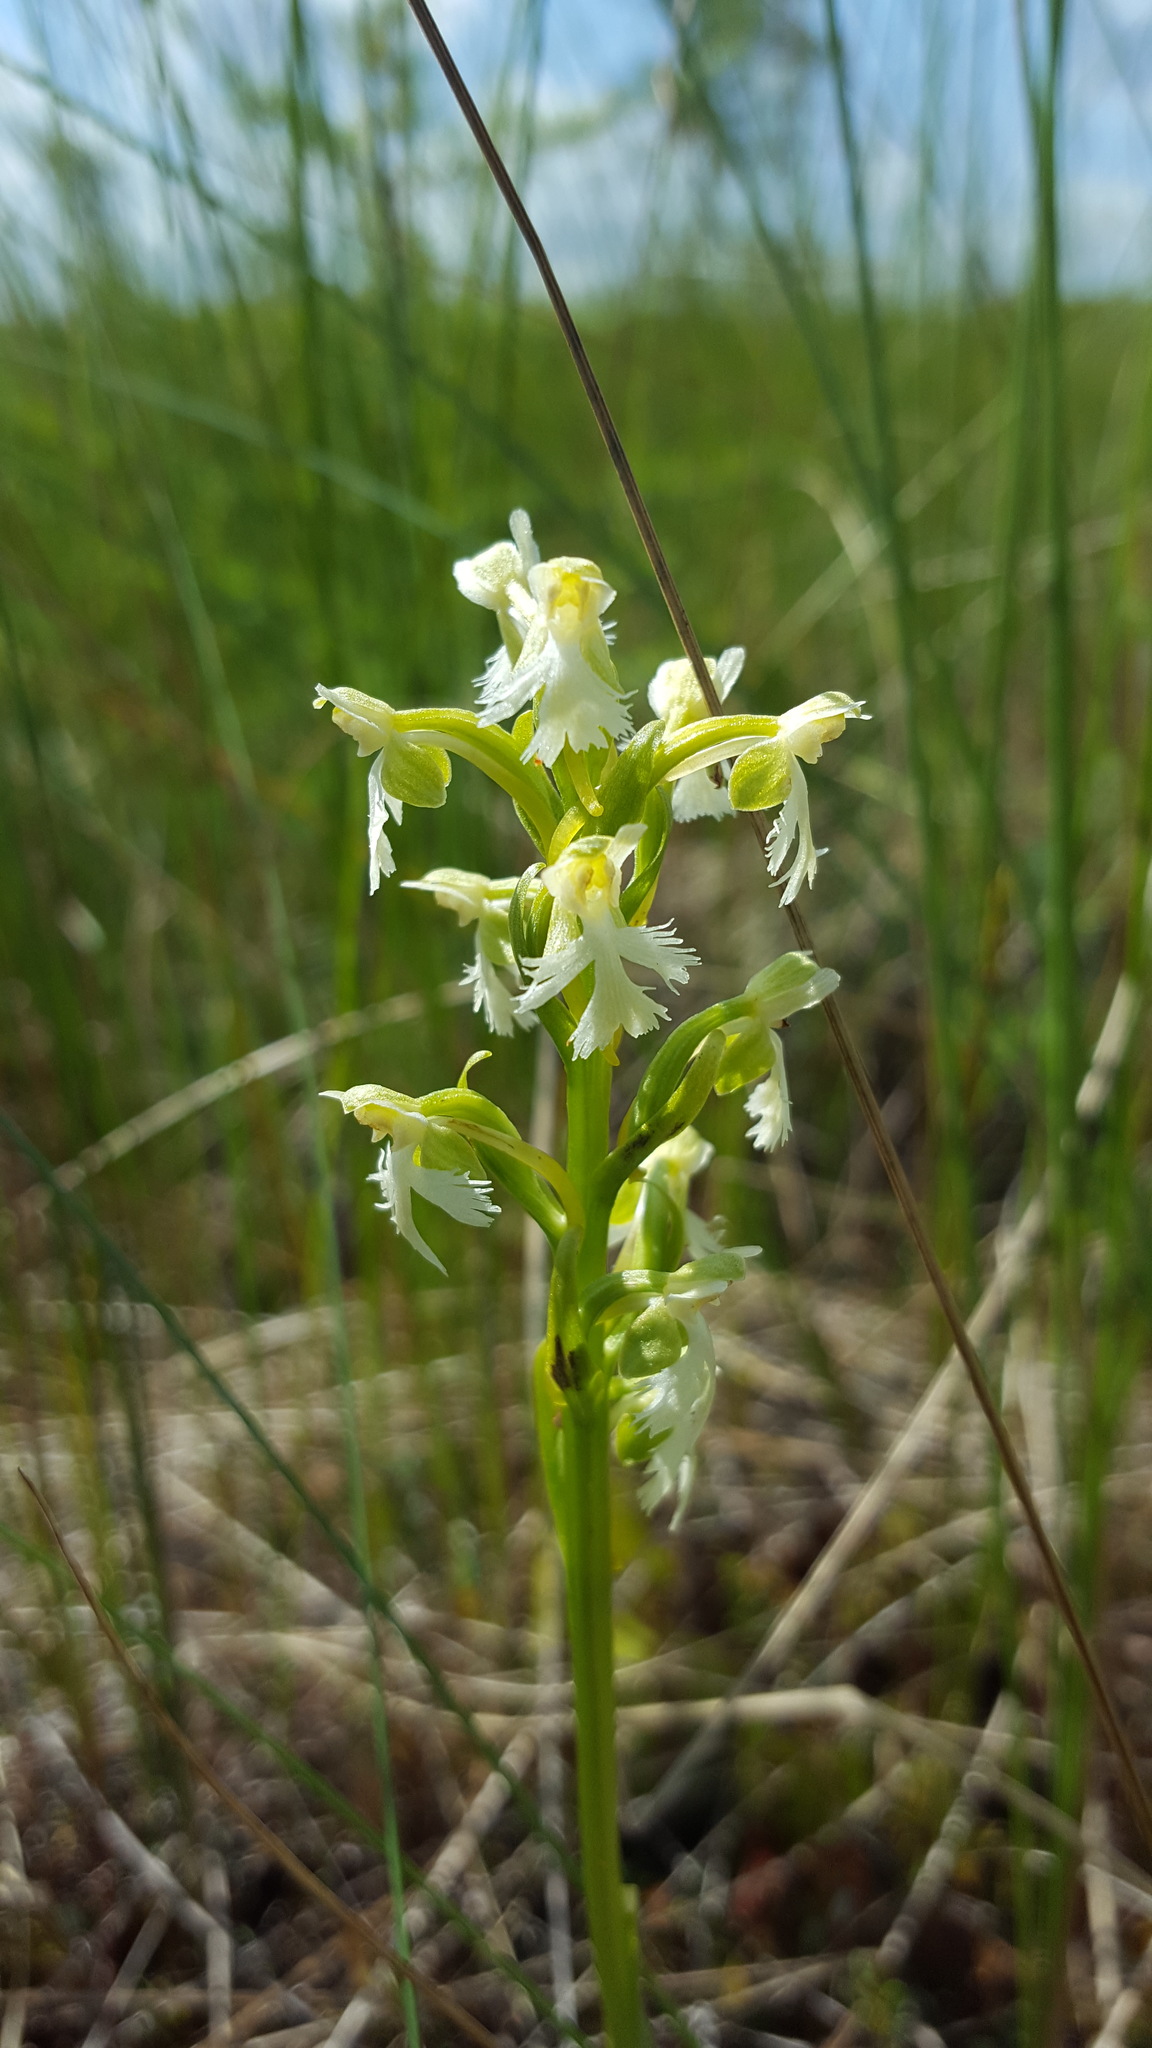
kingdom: Plantae
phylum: Tracheophyta
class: Liliopsida
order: Asparagales
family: Orchidaceae
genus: Platanthera
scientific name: Platanthera lacera
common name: Green fringed orchid
